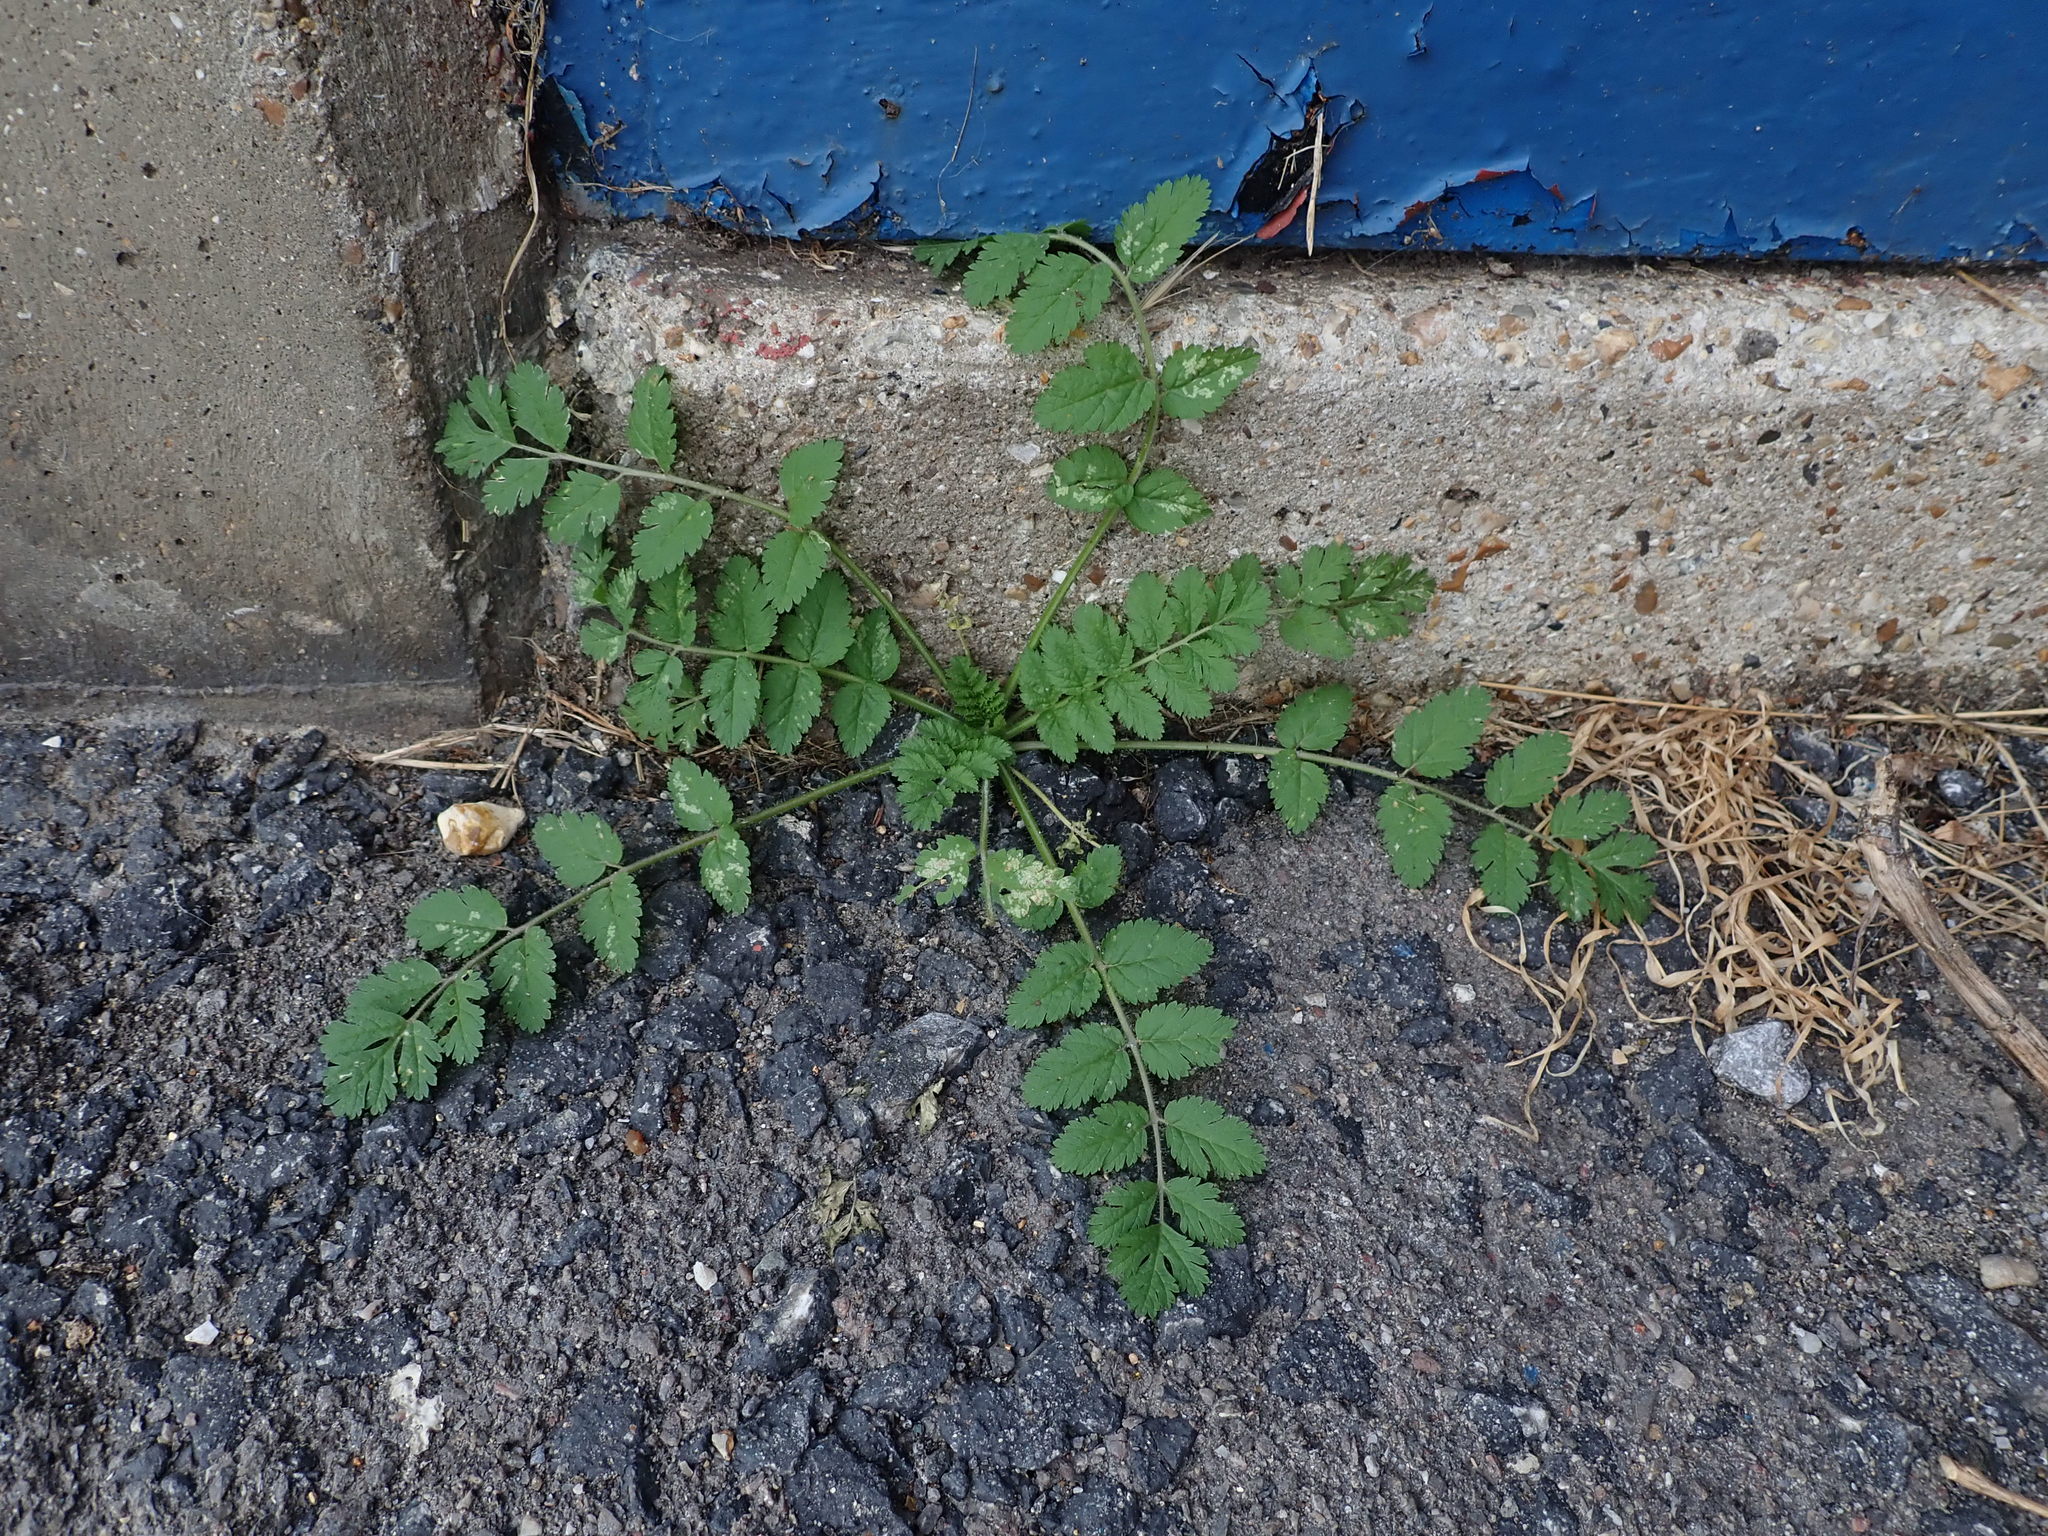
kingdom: Plantae
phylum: Tracheophyta
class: Magnoliopsida
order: Geraniales
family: Geraniaceae
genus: Erodium
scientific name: Erodium moschatum
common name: Musk stork's-bill
